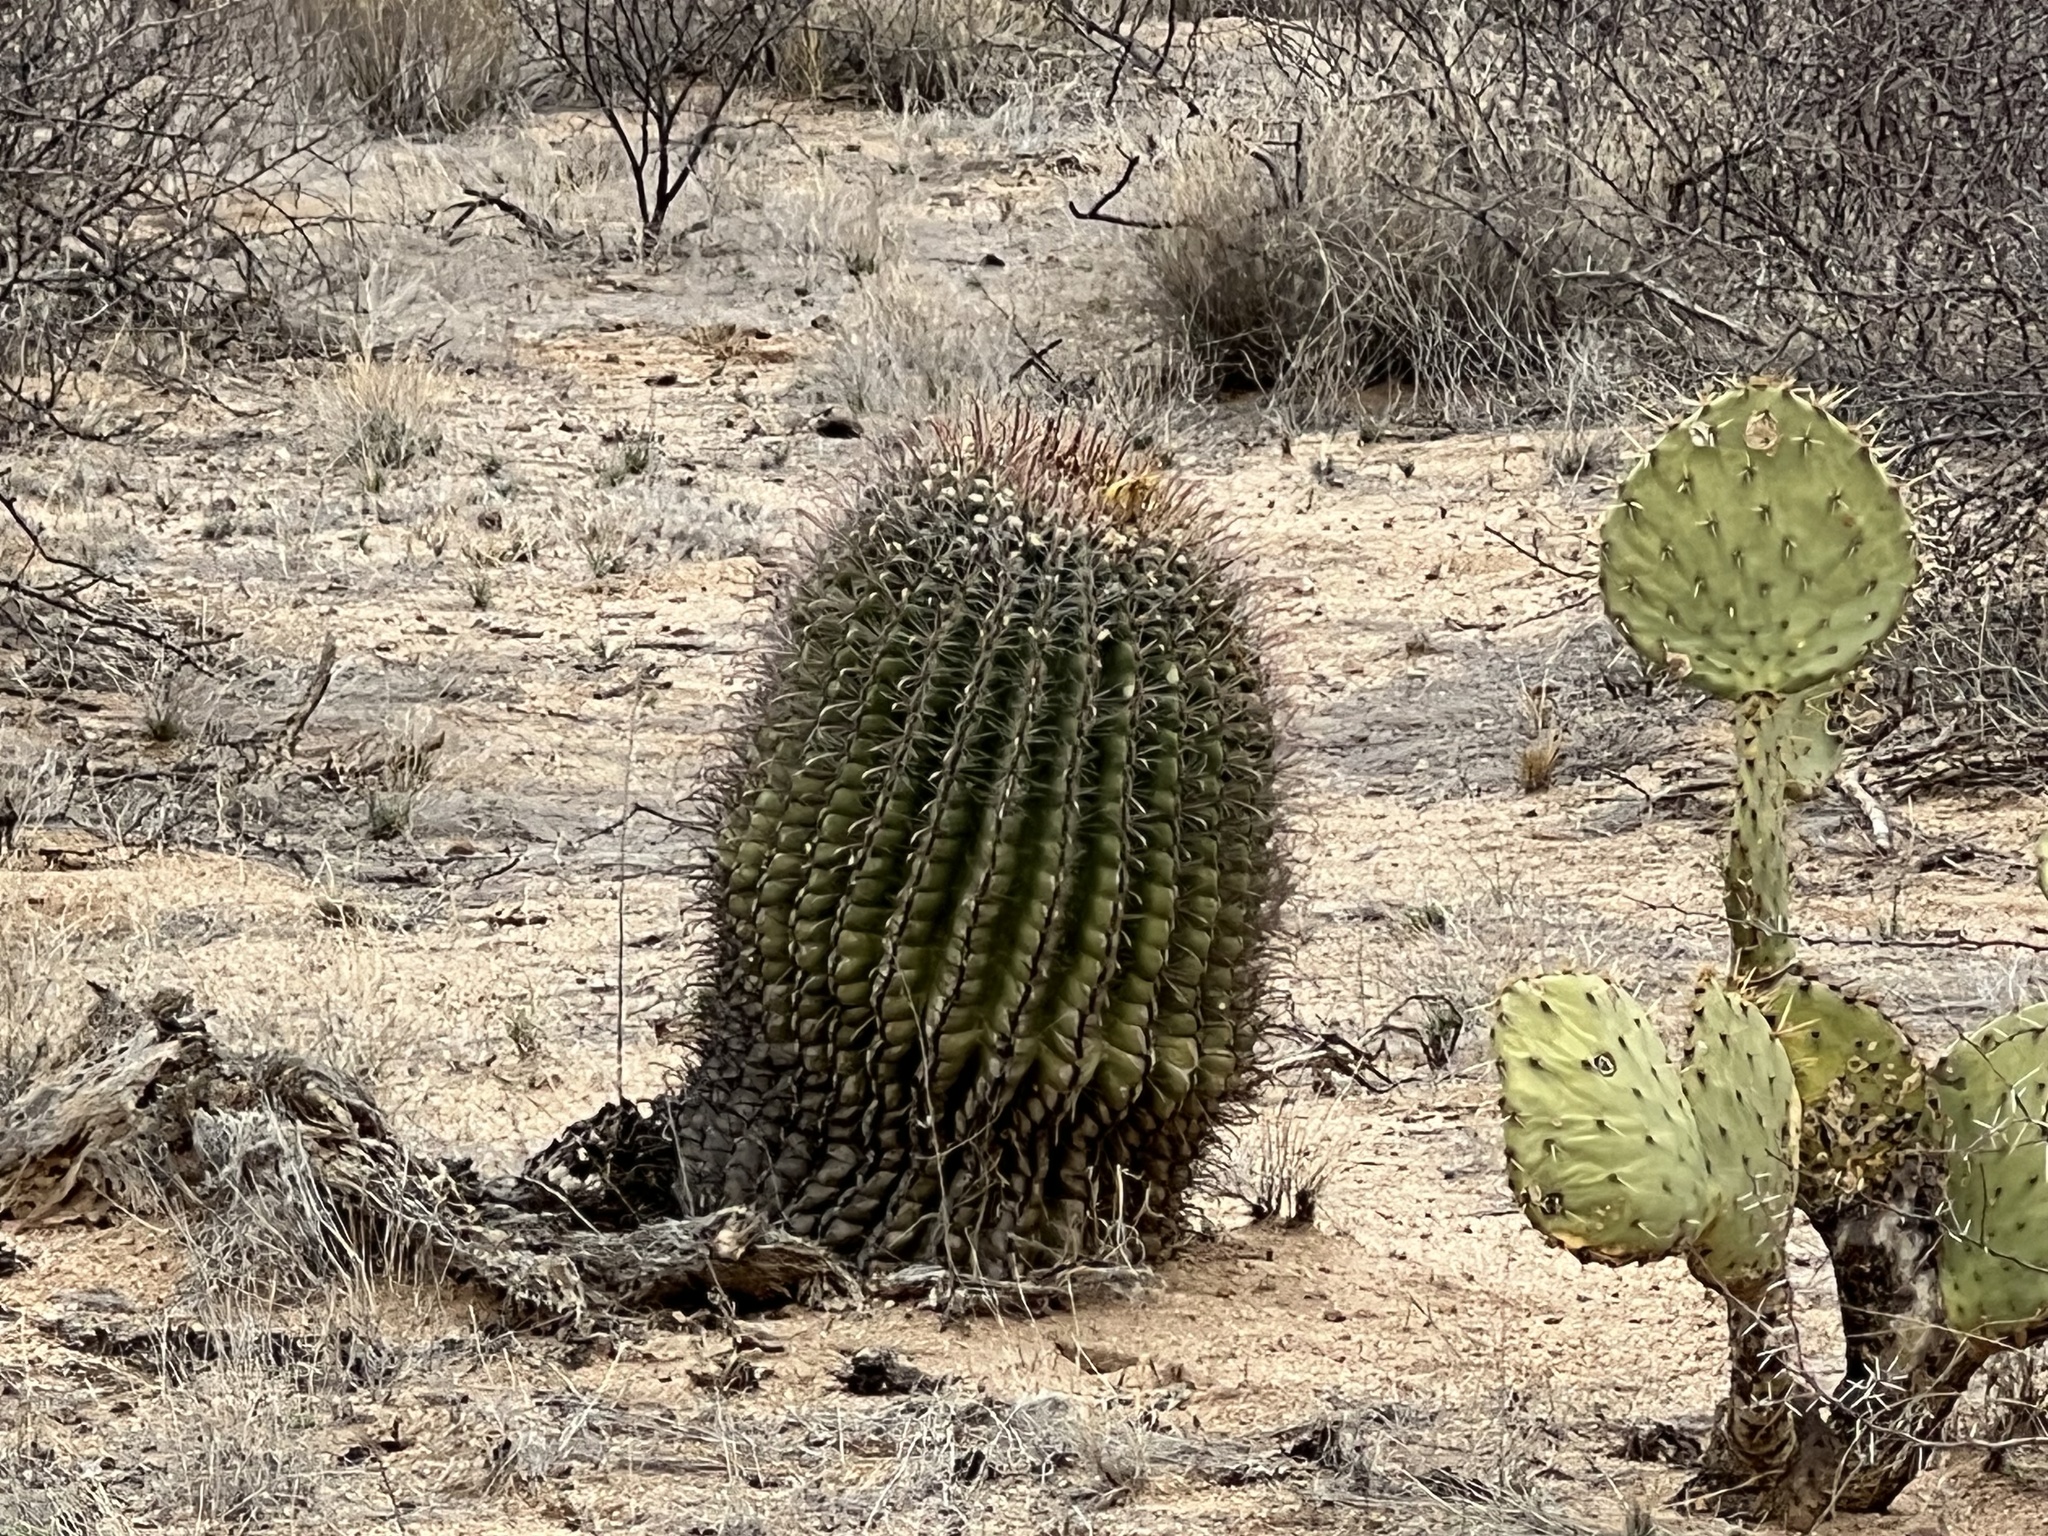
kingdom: Plantae
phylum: Tracheophyta
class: Magnoliopsida
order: Caryophyllales
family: Cactaceae
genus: Ferocactus
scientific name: Ferocactus wislizeni
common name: Candy barrel cactus
